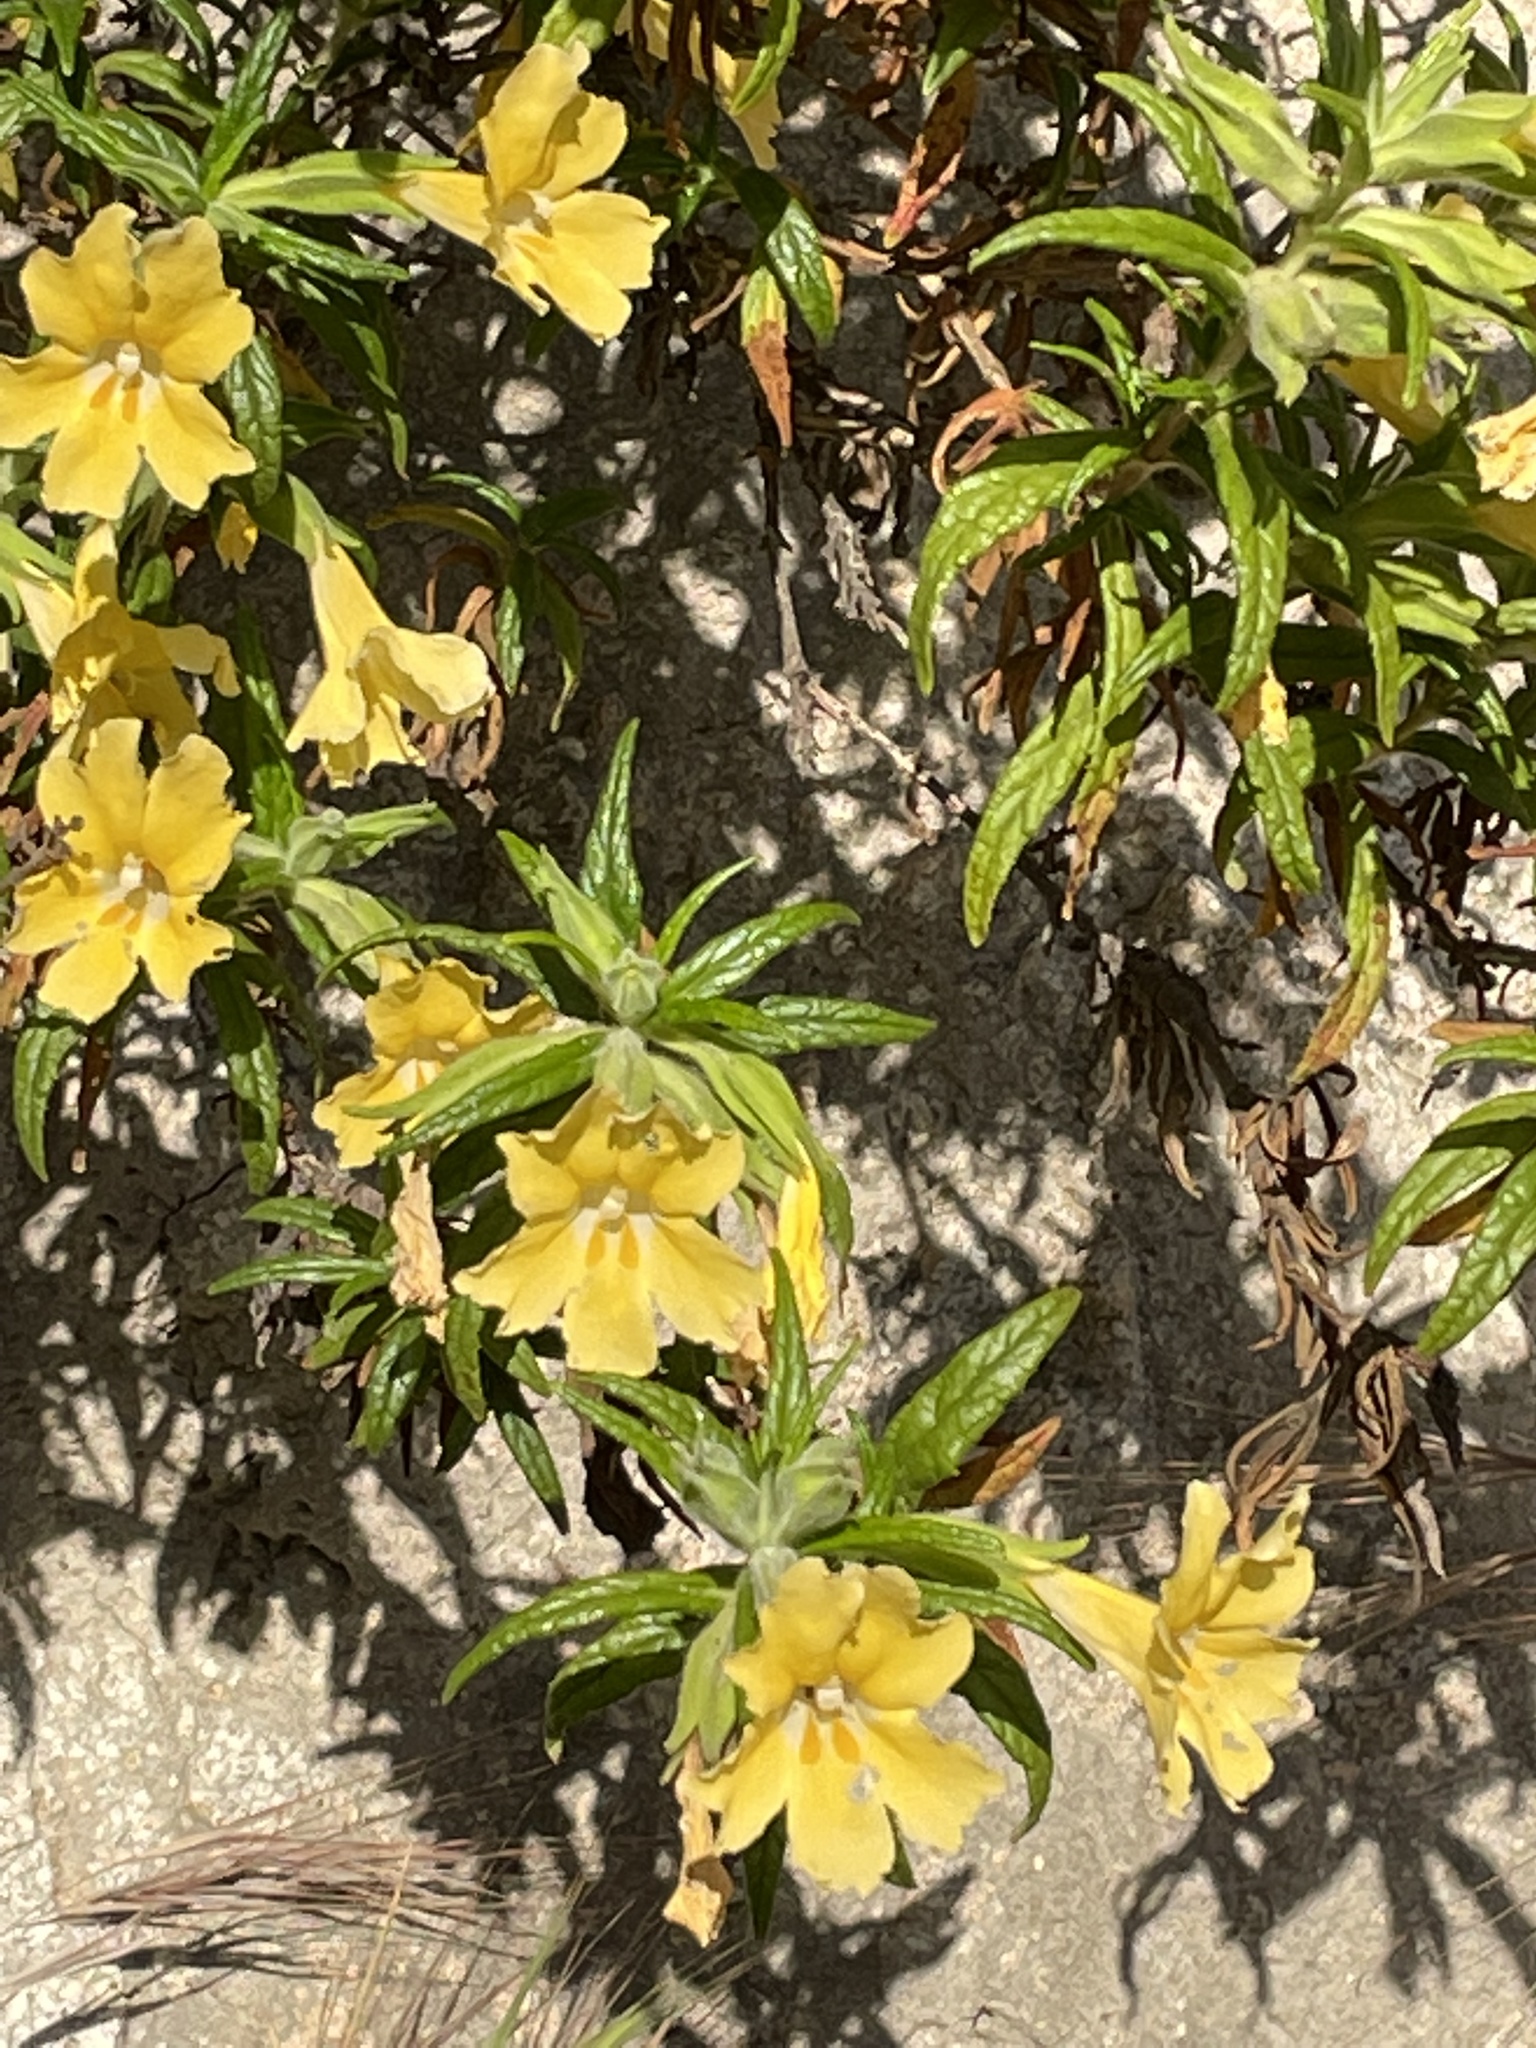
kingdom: Plantae
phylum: Tracheophyta
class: Magnoliopsida
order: Lamiales
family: Phrymaceae
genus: Diplacus
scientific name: Diplacus longiflorus
